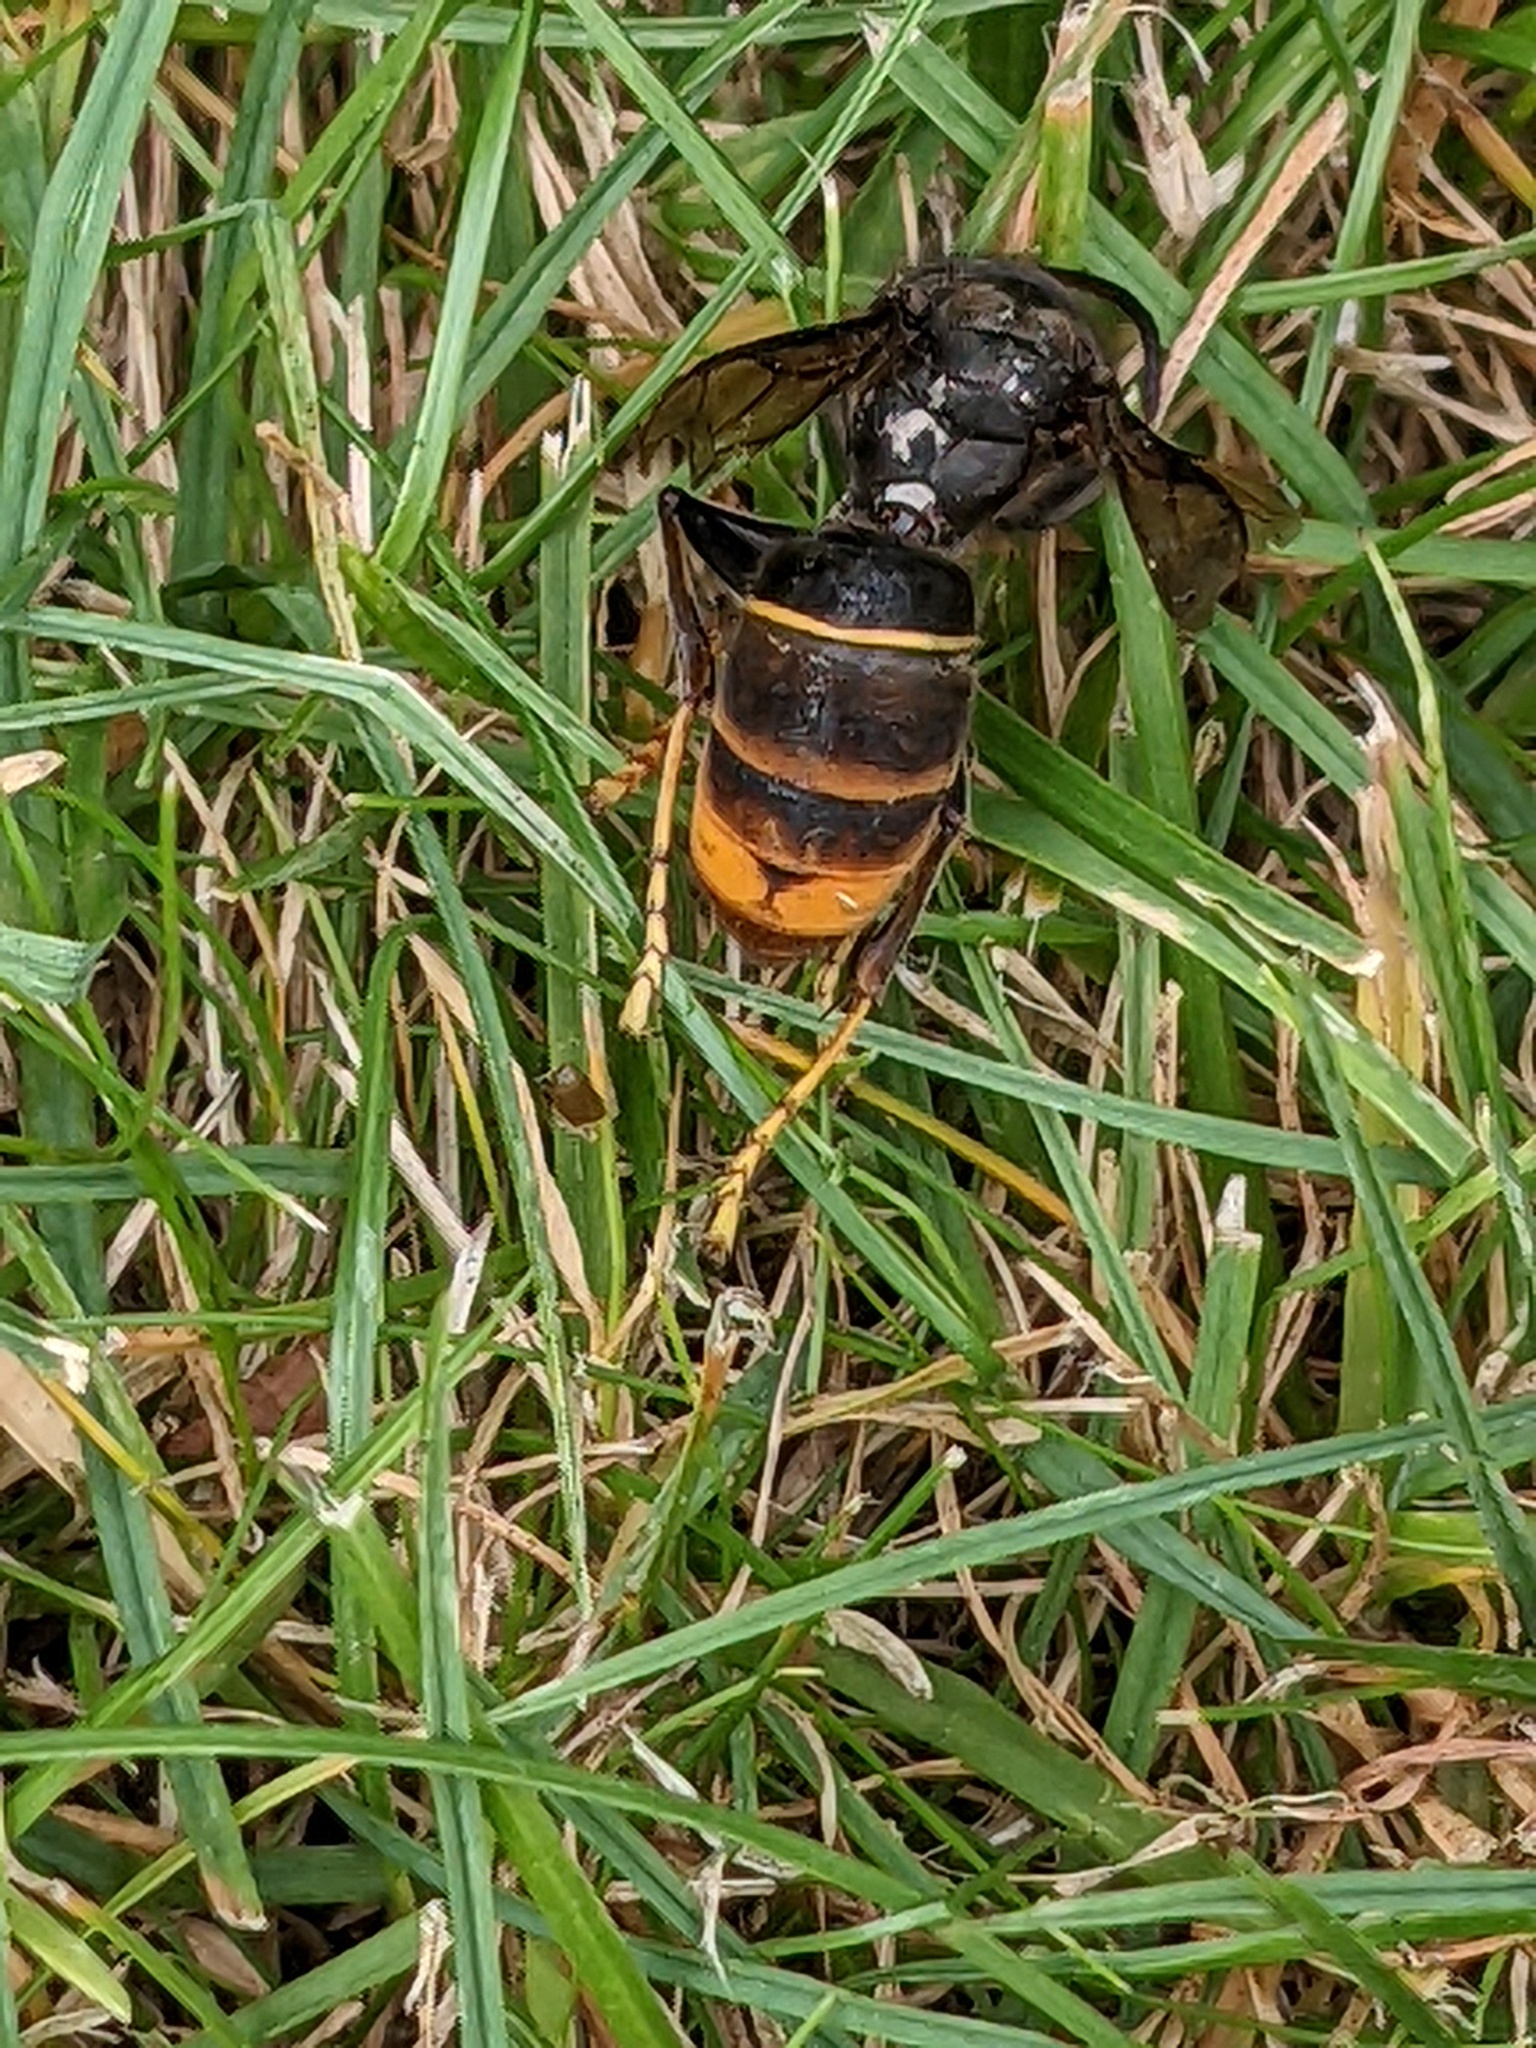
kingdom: Animalia
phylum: Arthropoda
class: Insecta
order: Hymenoptera
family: Vespidae
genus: Vespa
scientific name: Vespa velutina
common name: Asian hornet
